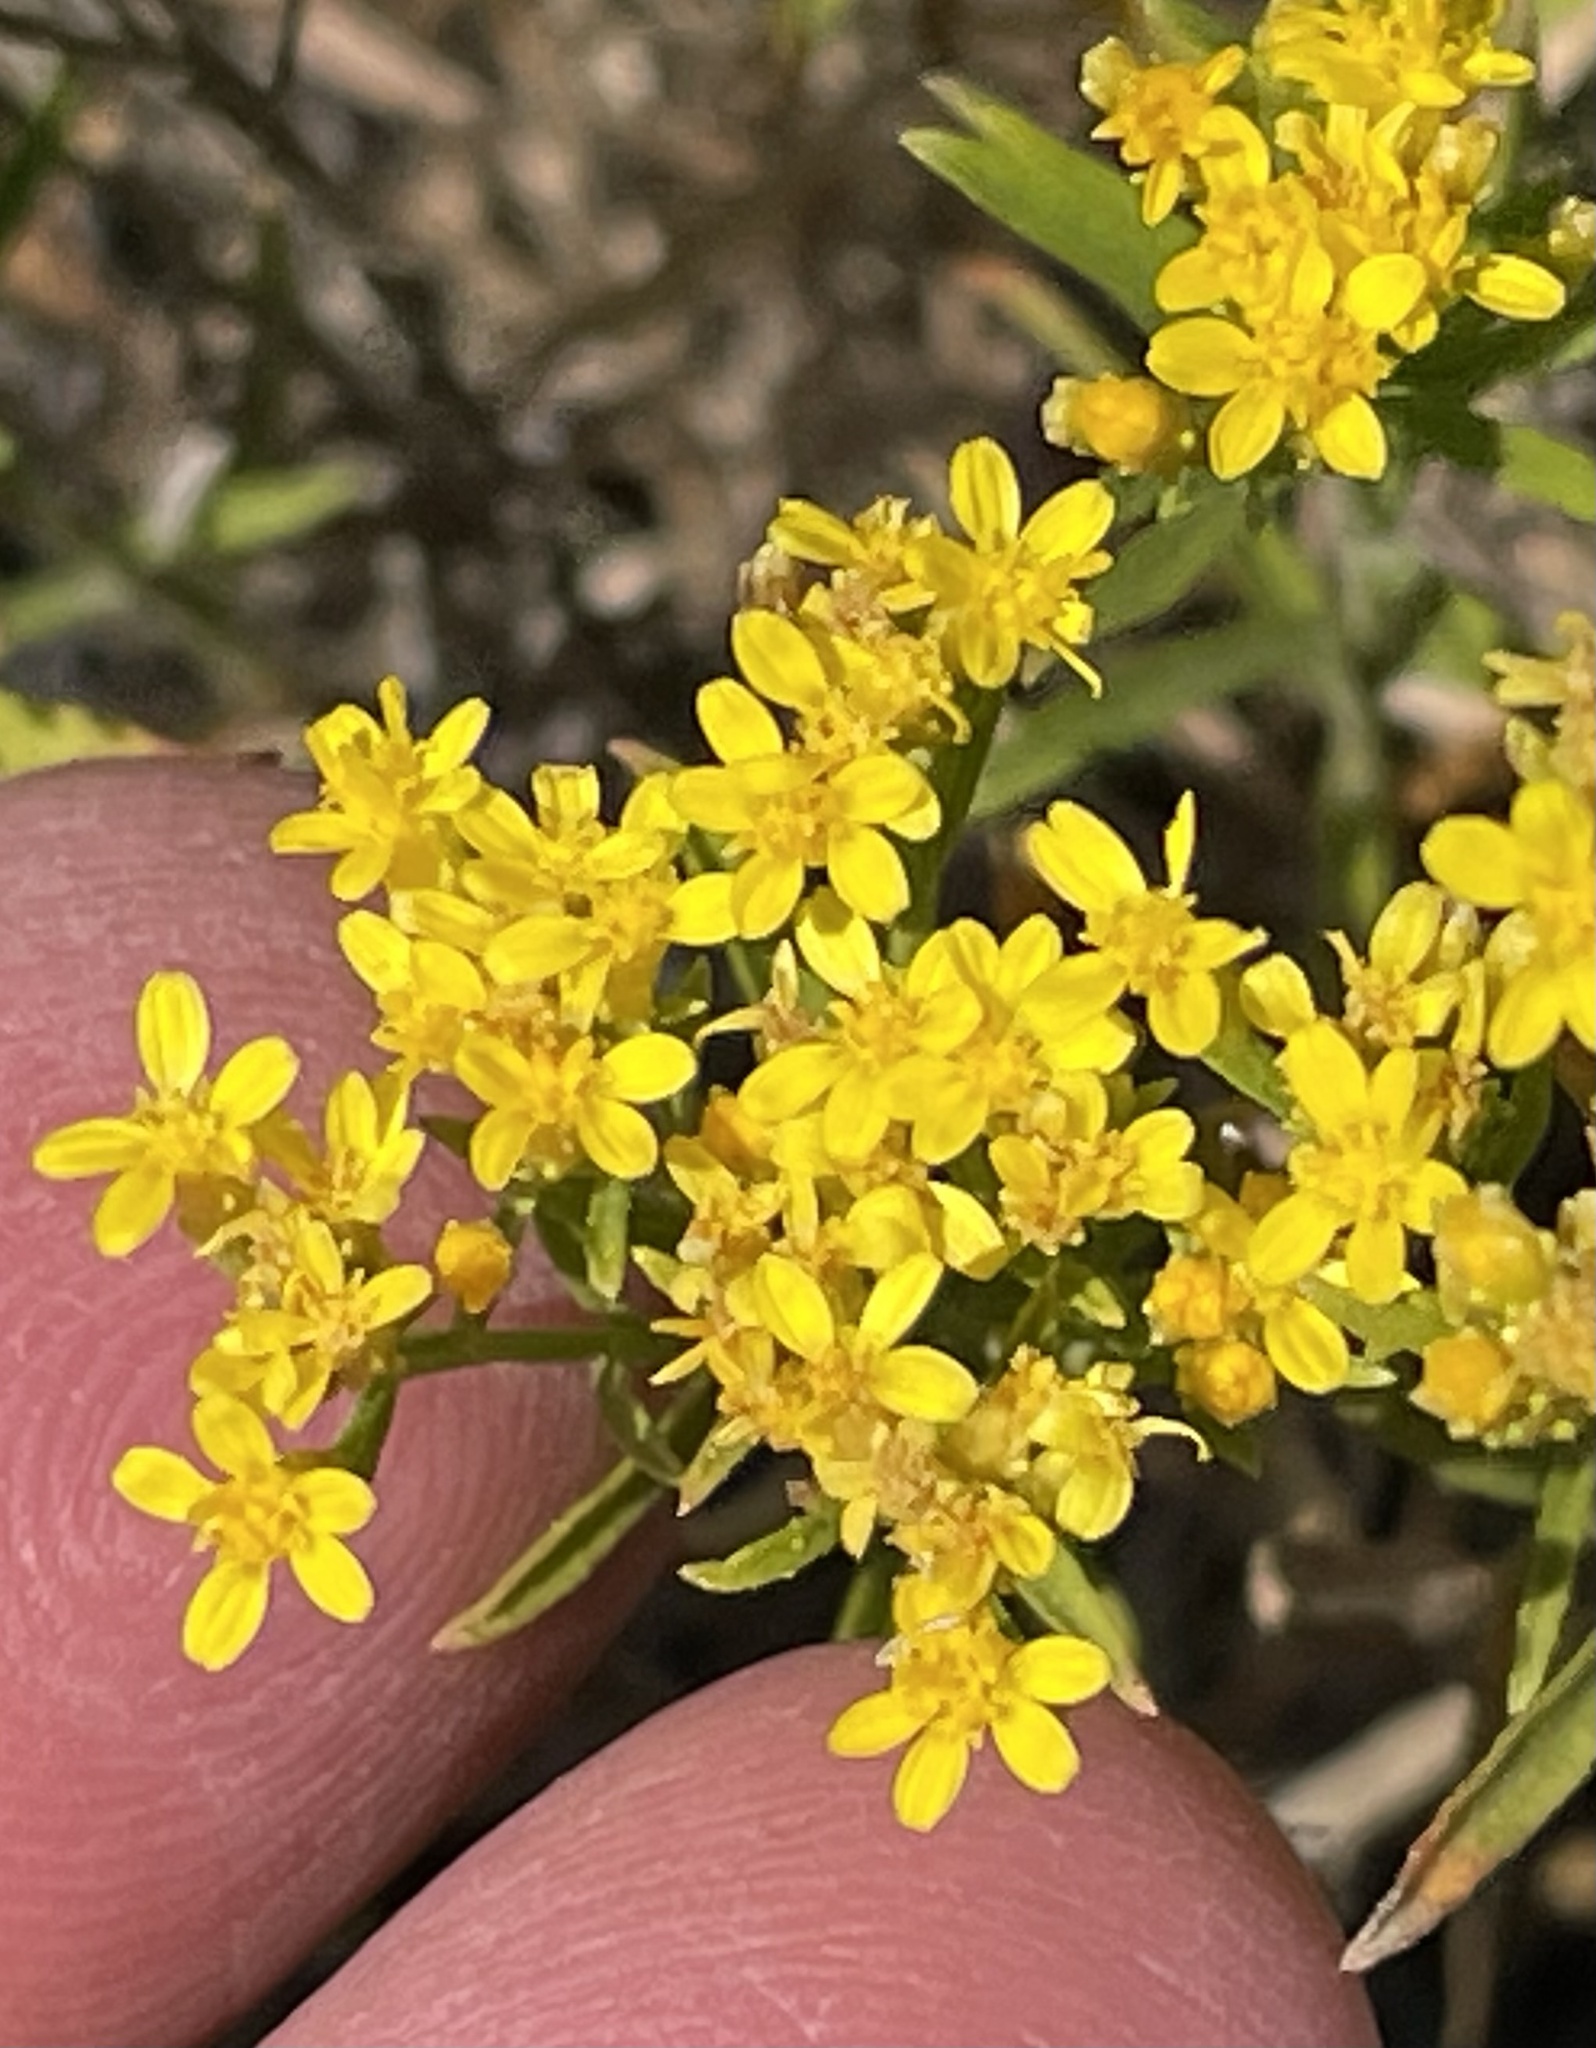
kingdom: Plantae
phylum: Tracheophyta
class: Magnoliopsida
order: Asterales
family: Asteraceae
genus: Gutierrezia
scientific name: Gutierrezia sarothrae
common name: Broom snakeweed
